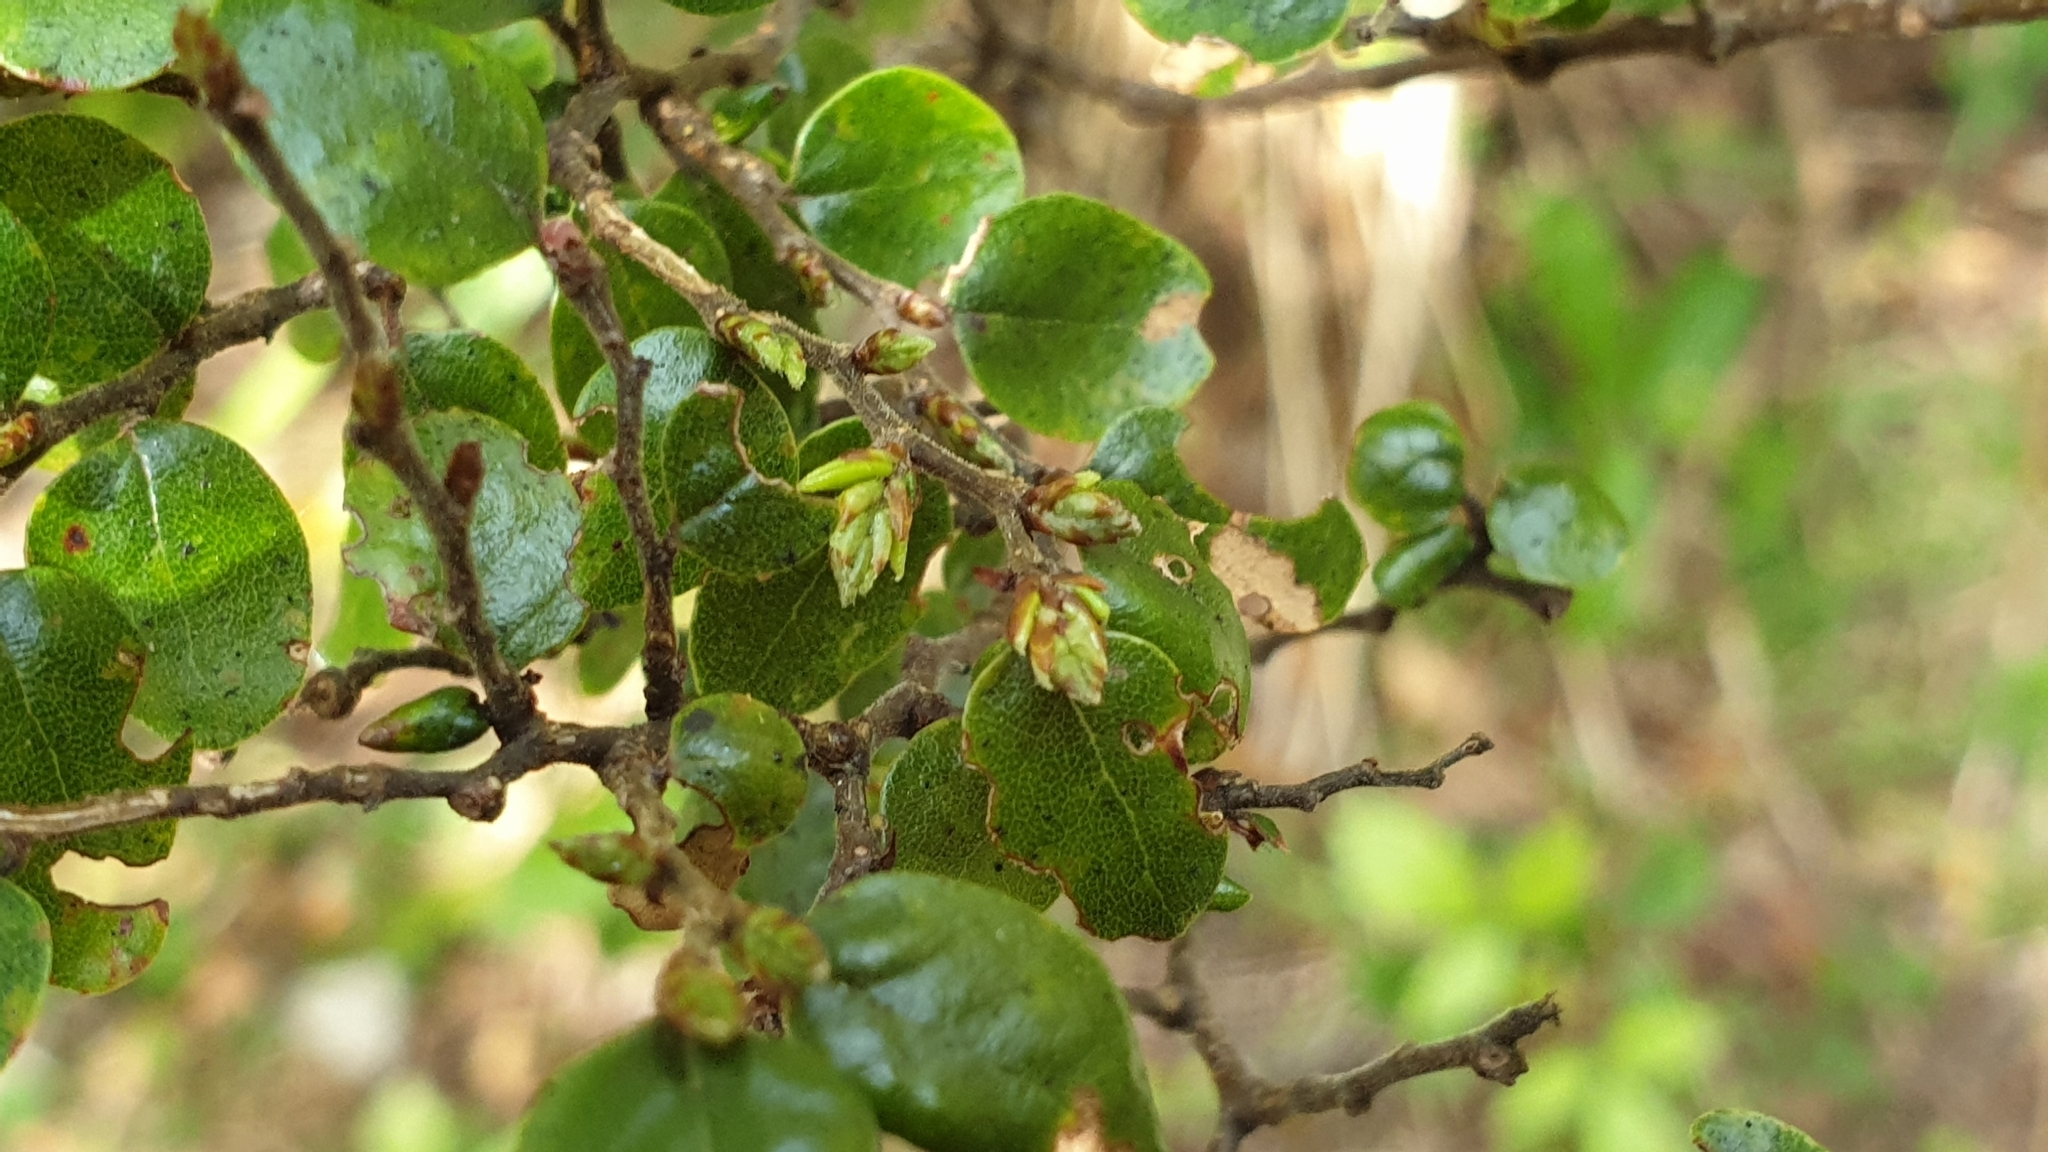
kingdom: Plantae
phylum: Tracheophyta
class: Magnoliopsida
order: Fagales
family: Nothofagaceae
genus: Nothofagus
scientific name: Nothofagus solandri
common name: Black beech
